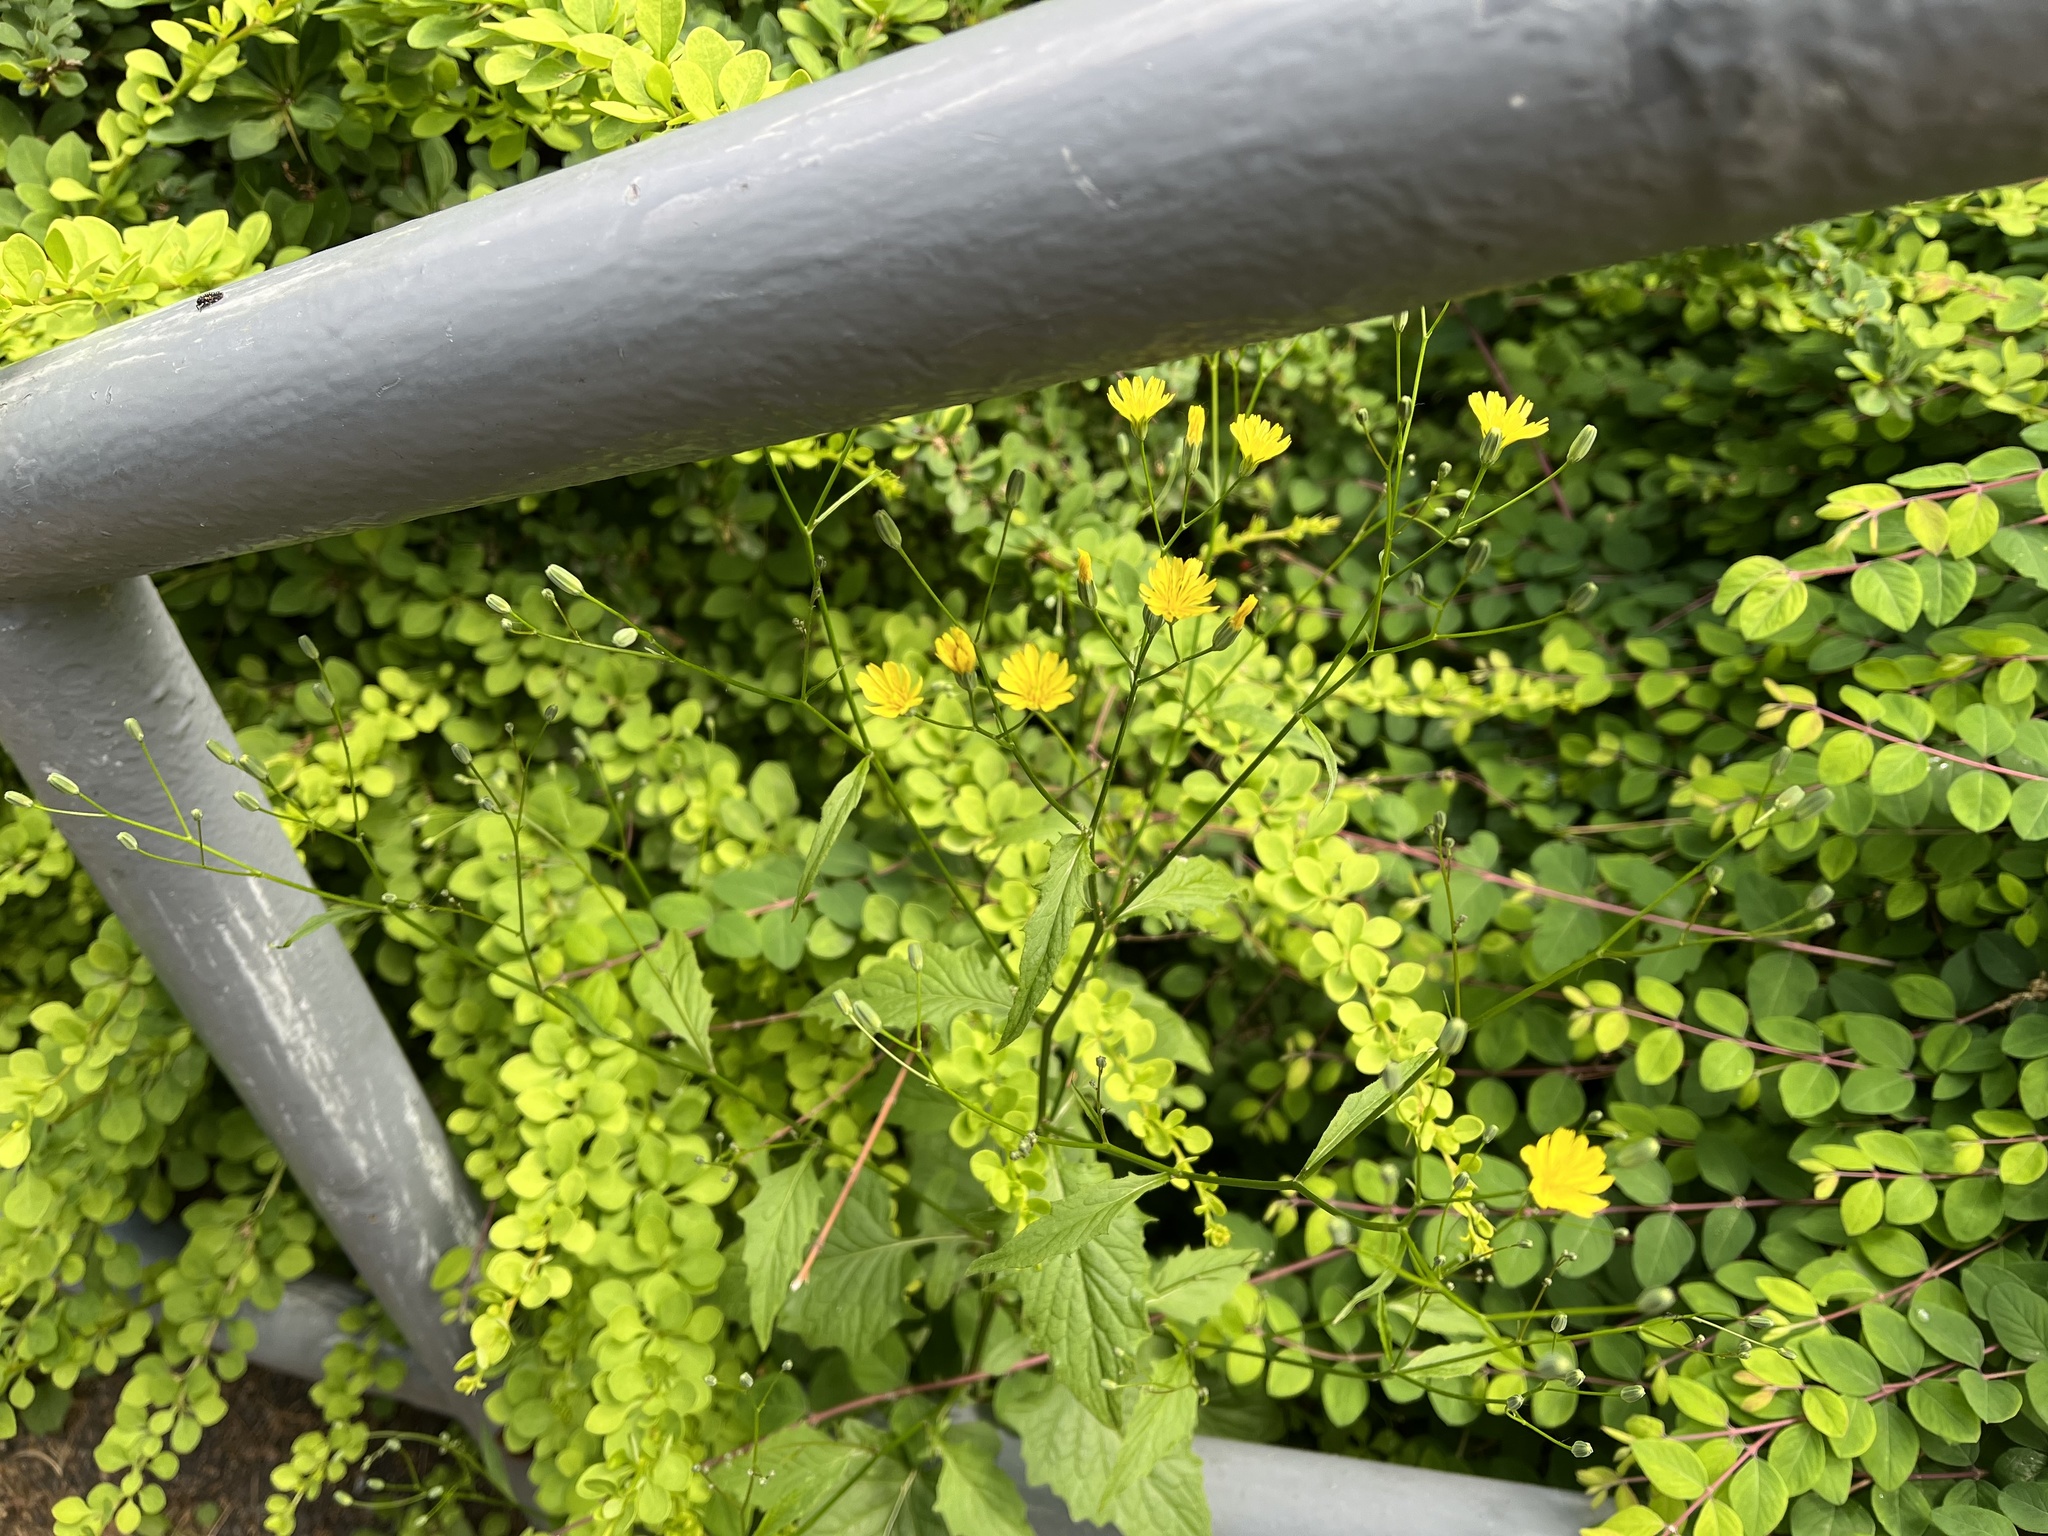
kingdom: Plantae
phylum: Tracheophyta
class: Magnoliopsida
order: Asterales
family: Asteraceae
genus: Lapsana
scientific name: Lapsana communis
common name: Nipplewort
